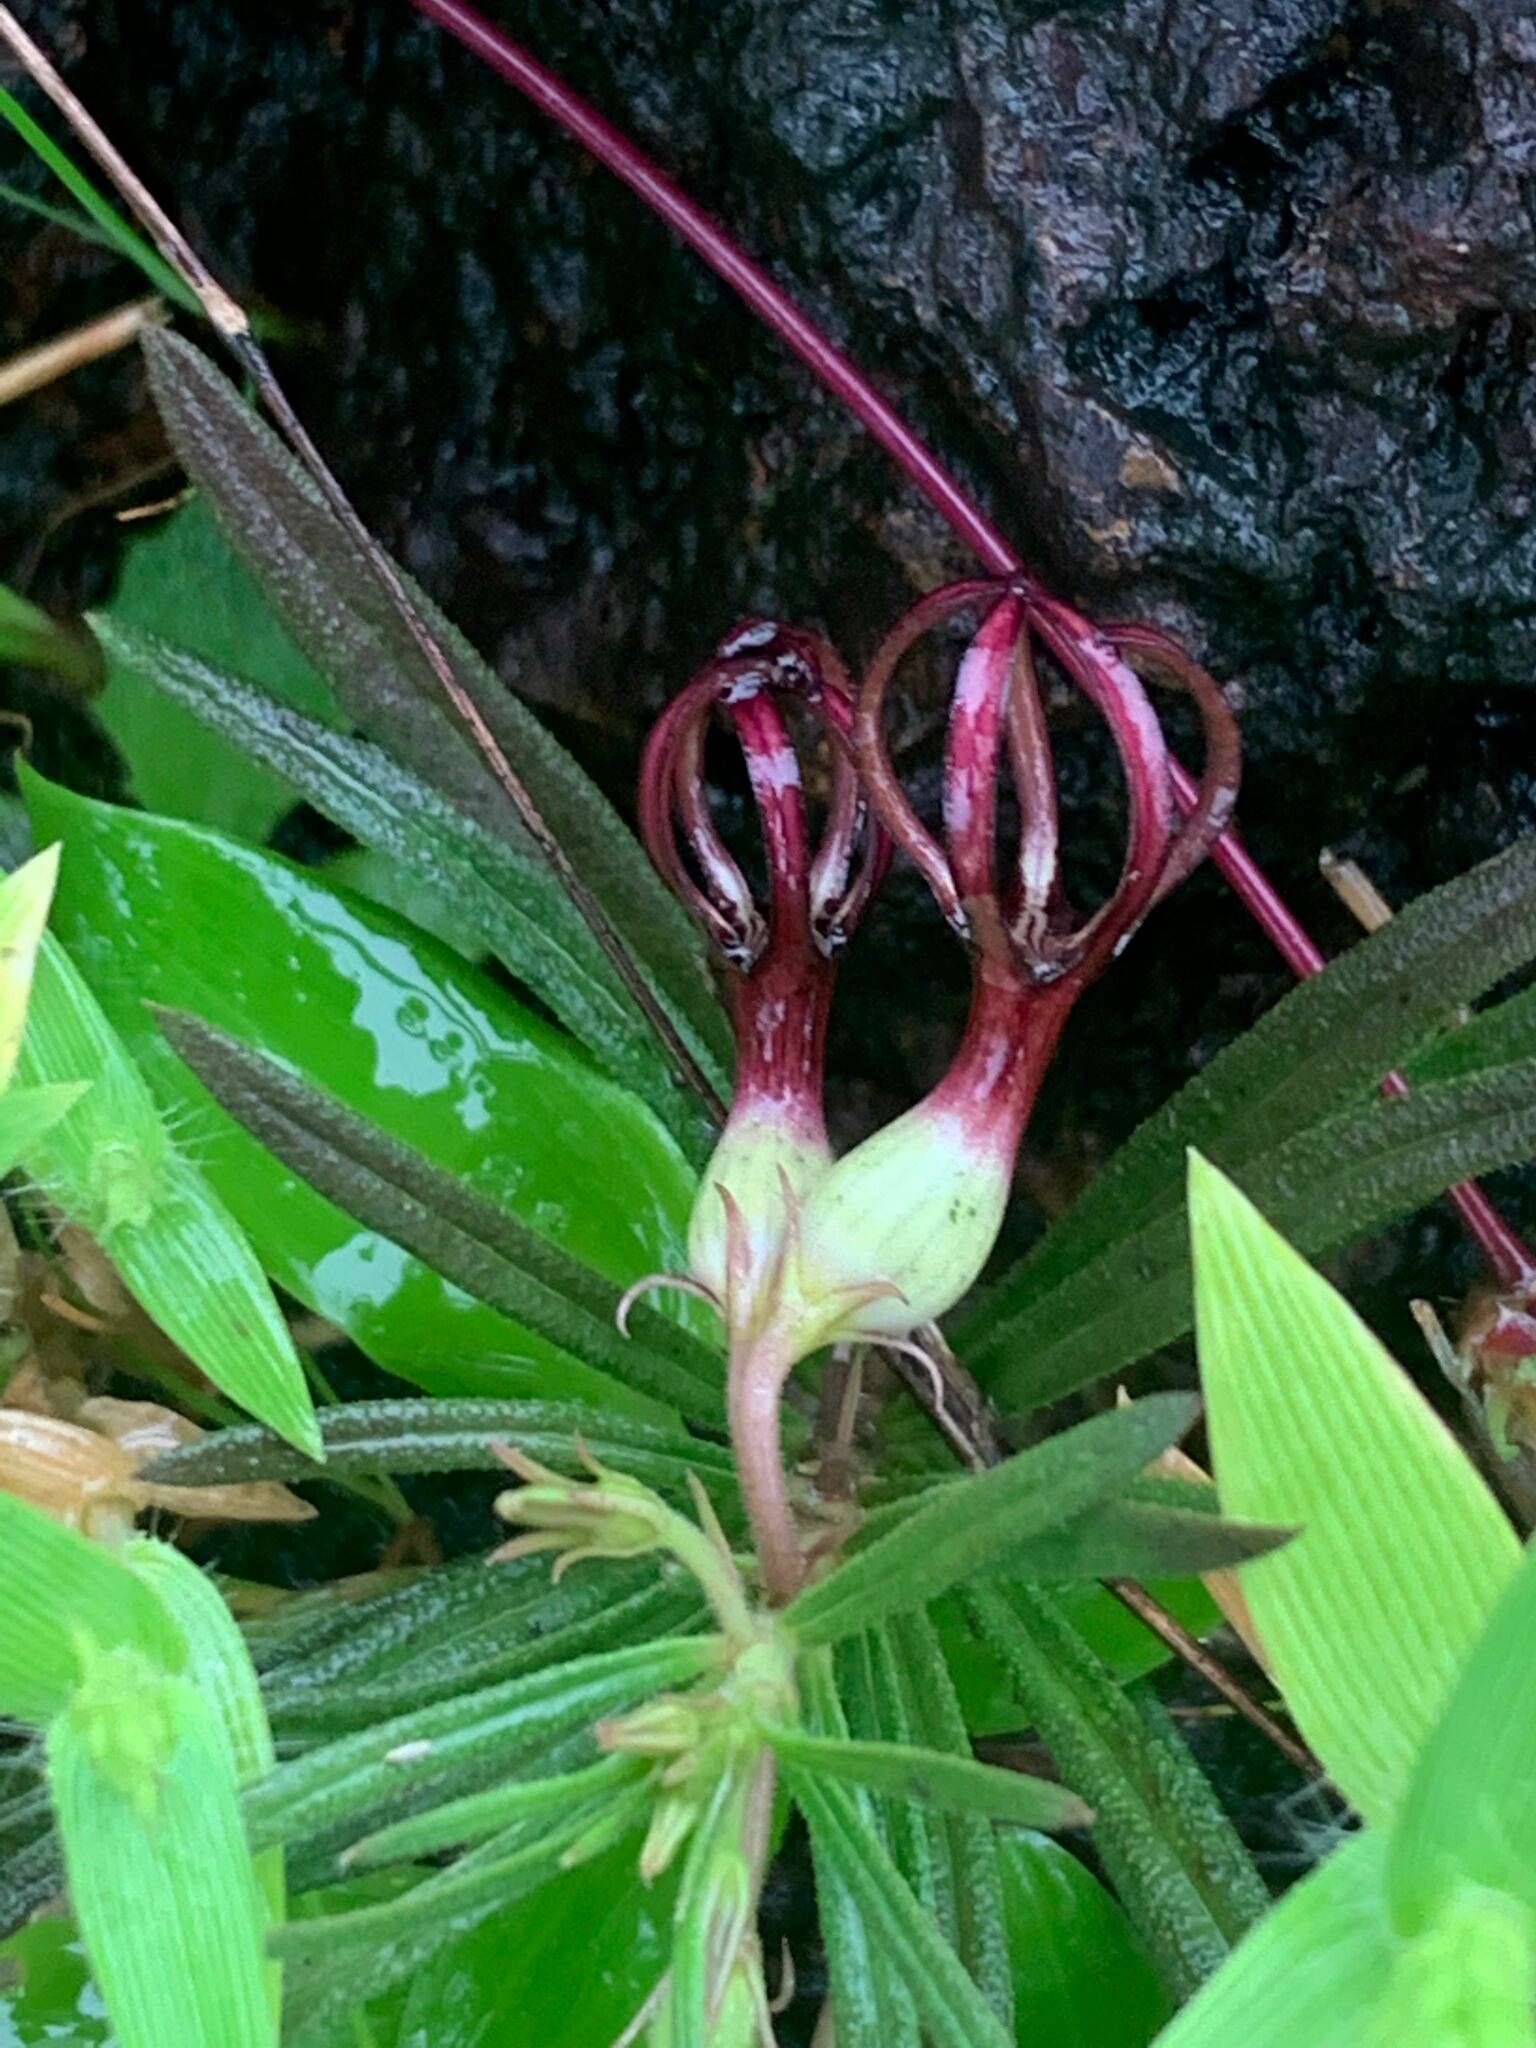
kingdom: Plantae
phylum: Tracheophyta
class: Magnoliopsida
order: Gentianales
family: Apocynaceae
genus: Ceropegia
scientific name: Ceropegia jainii
